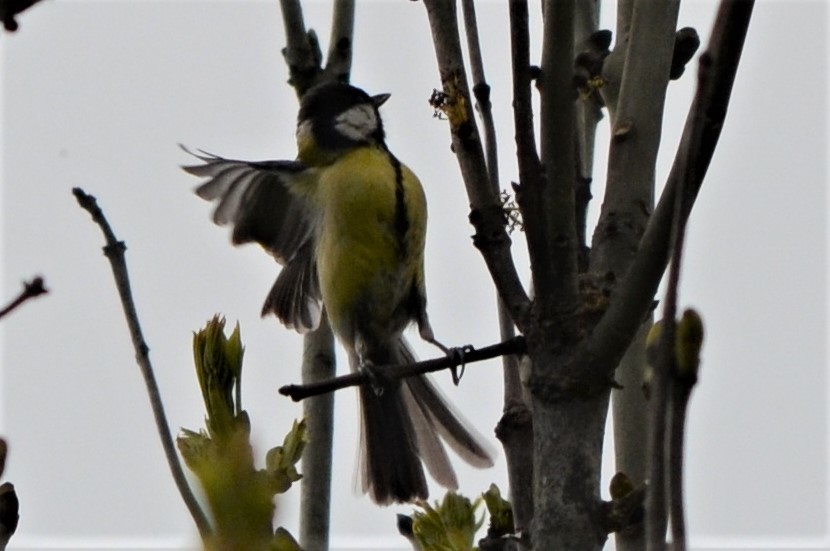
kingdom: Animalia
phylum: Chordata
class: Aves
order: Passeriformes
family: Paridae
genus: Parus
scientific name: Parus major
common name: Great tit
